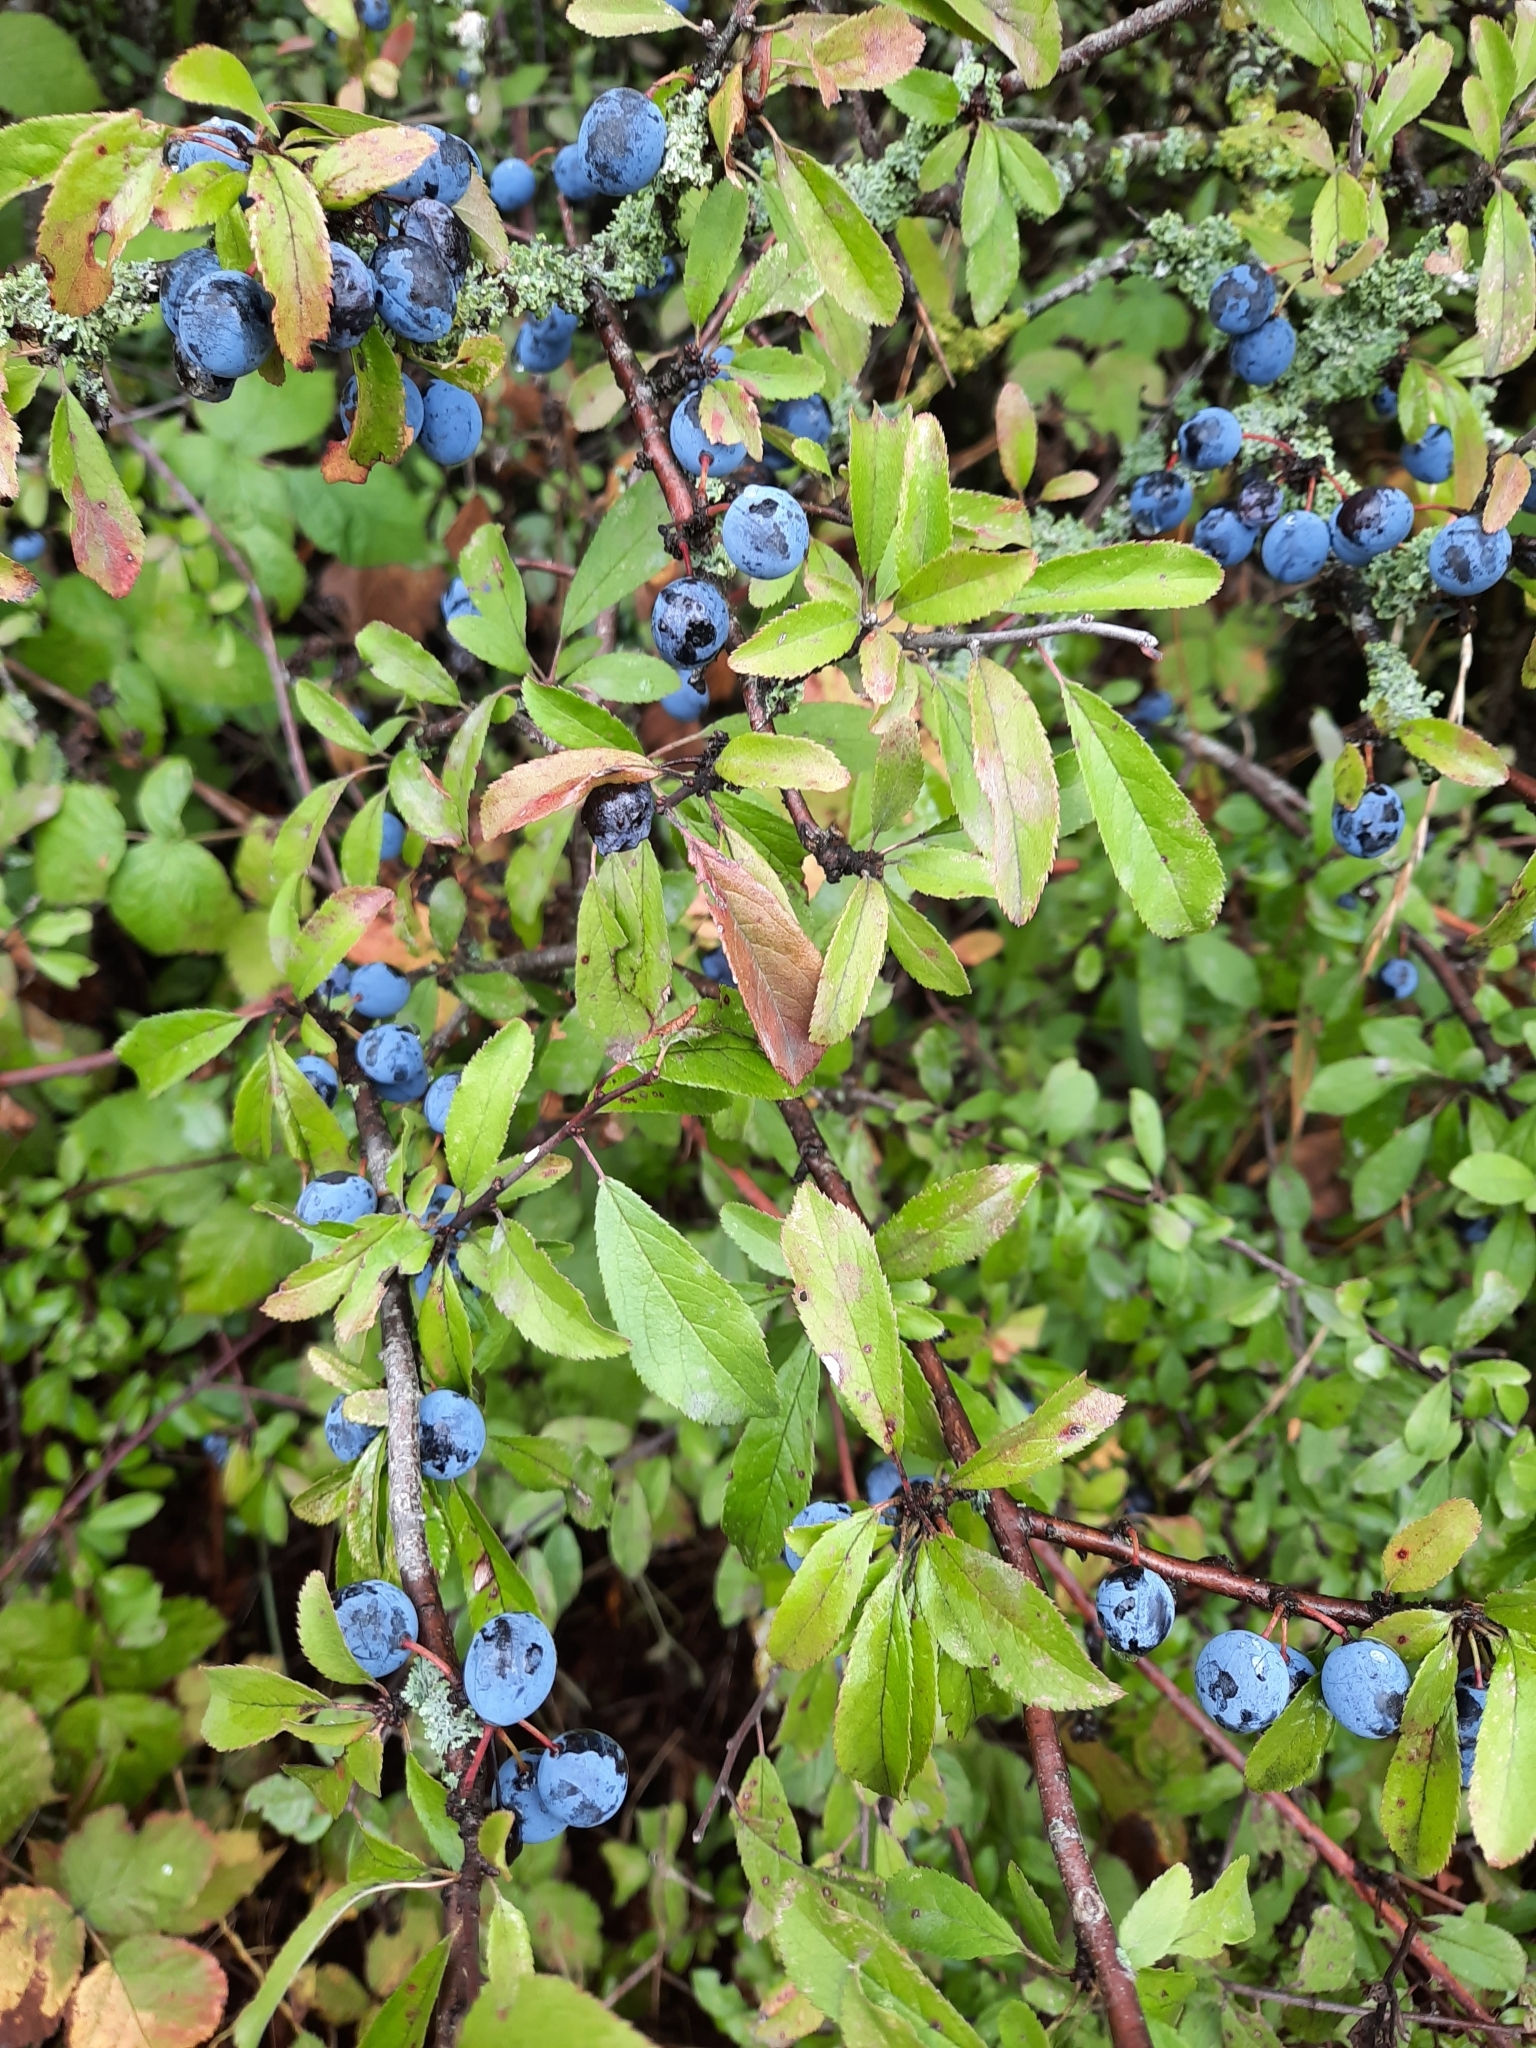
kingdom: Plantae
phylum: Tracheophyta
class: Magnoliopsida
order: Rosales
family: Rosaceae
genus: Prunus
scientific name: Prunus spinosa
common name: Blackthorn
